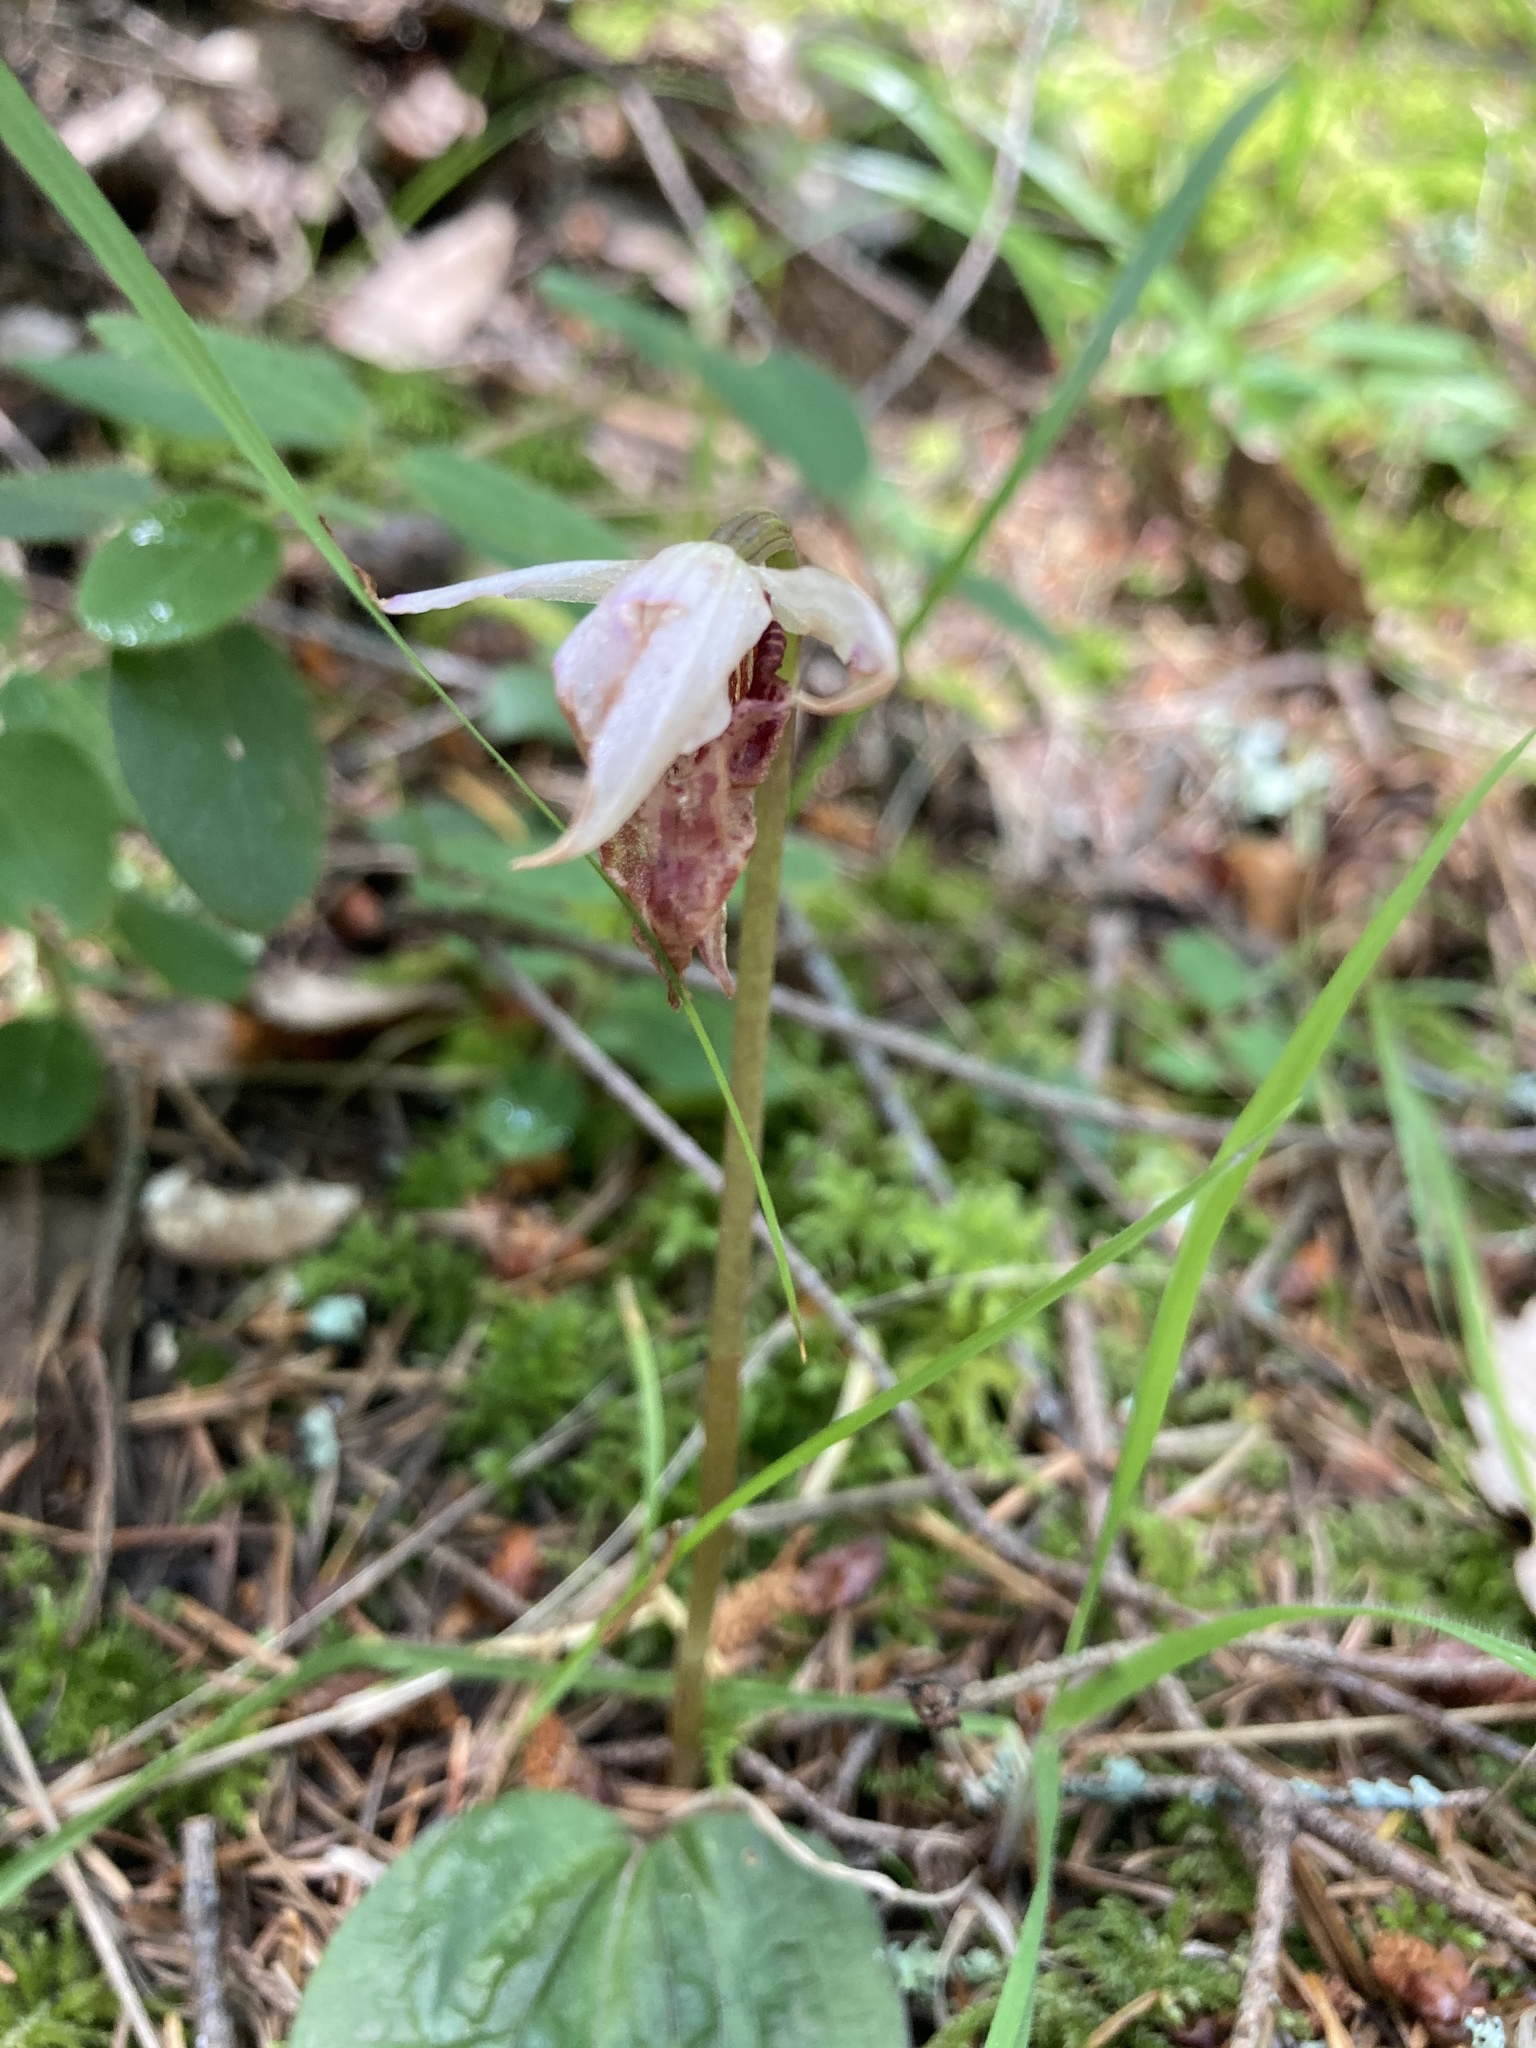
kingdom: Plantae
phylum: Tracheophyta
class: Liliopsida
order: Asparagales
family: Orchidaceae
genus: Calypso
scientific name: Calypso bulbosa
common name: Calypso
